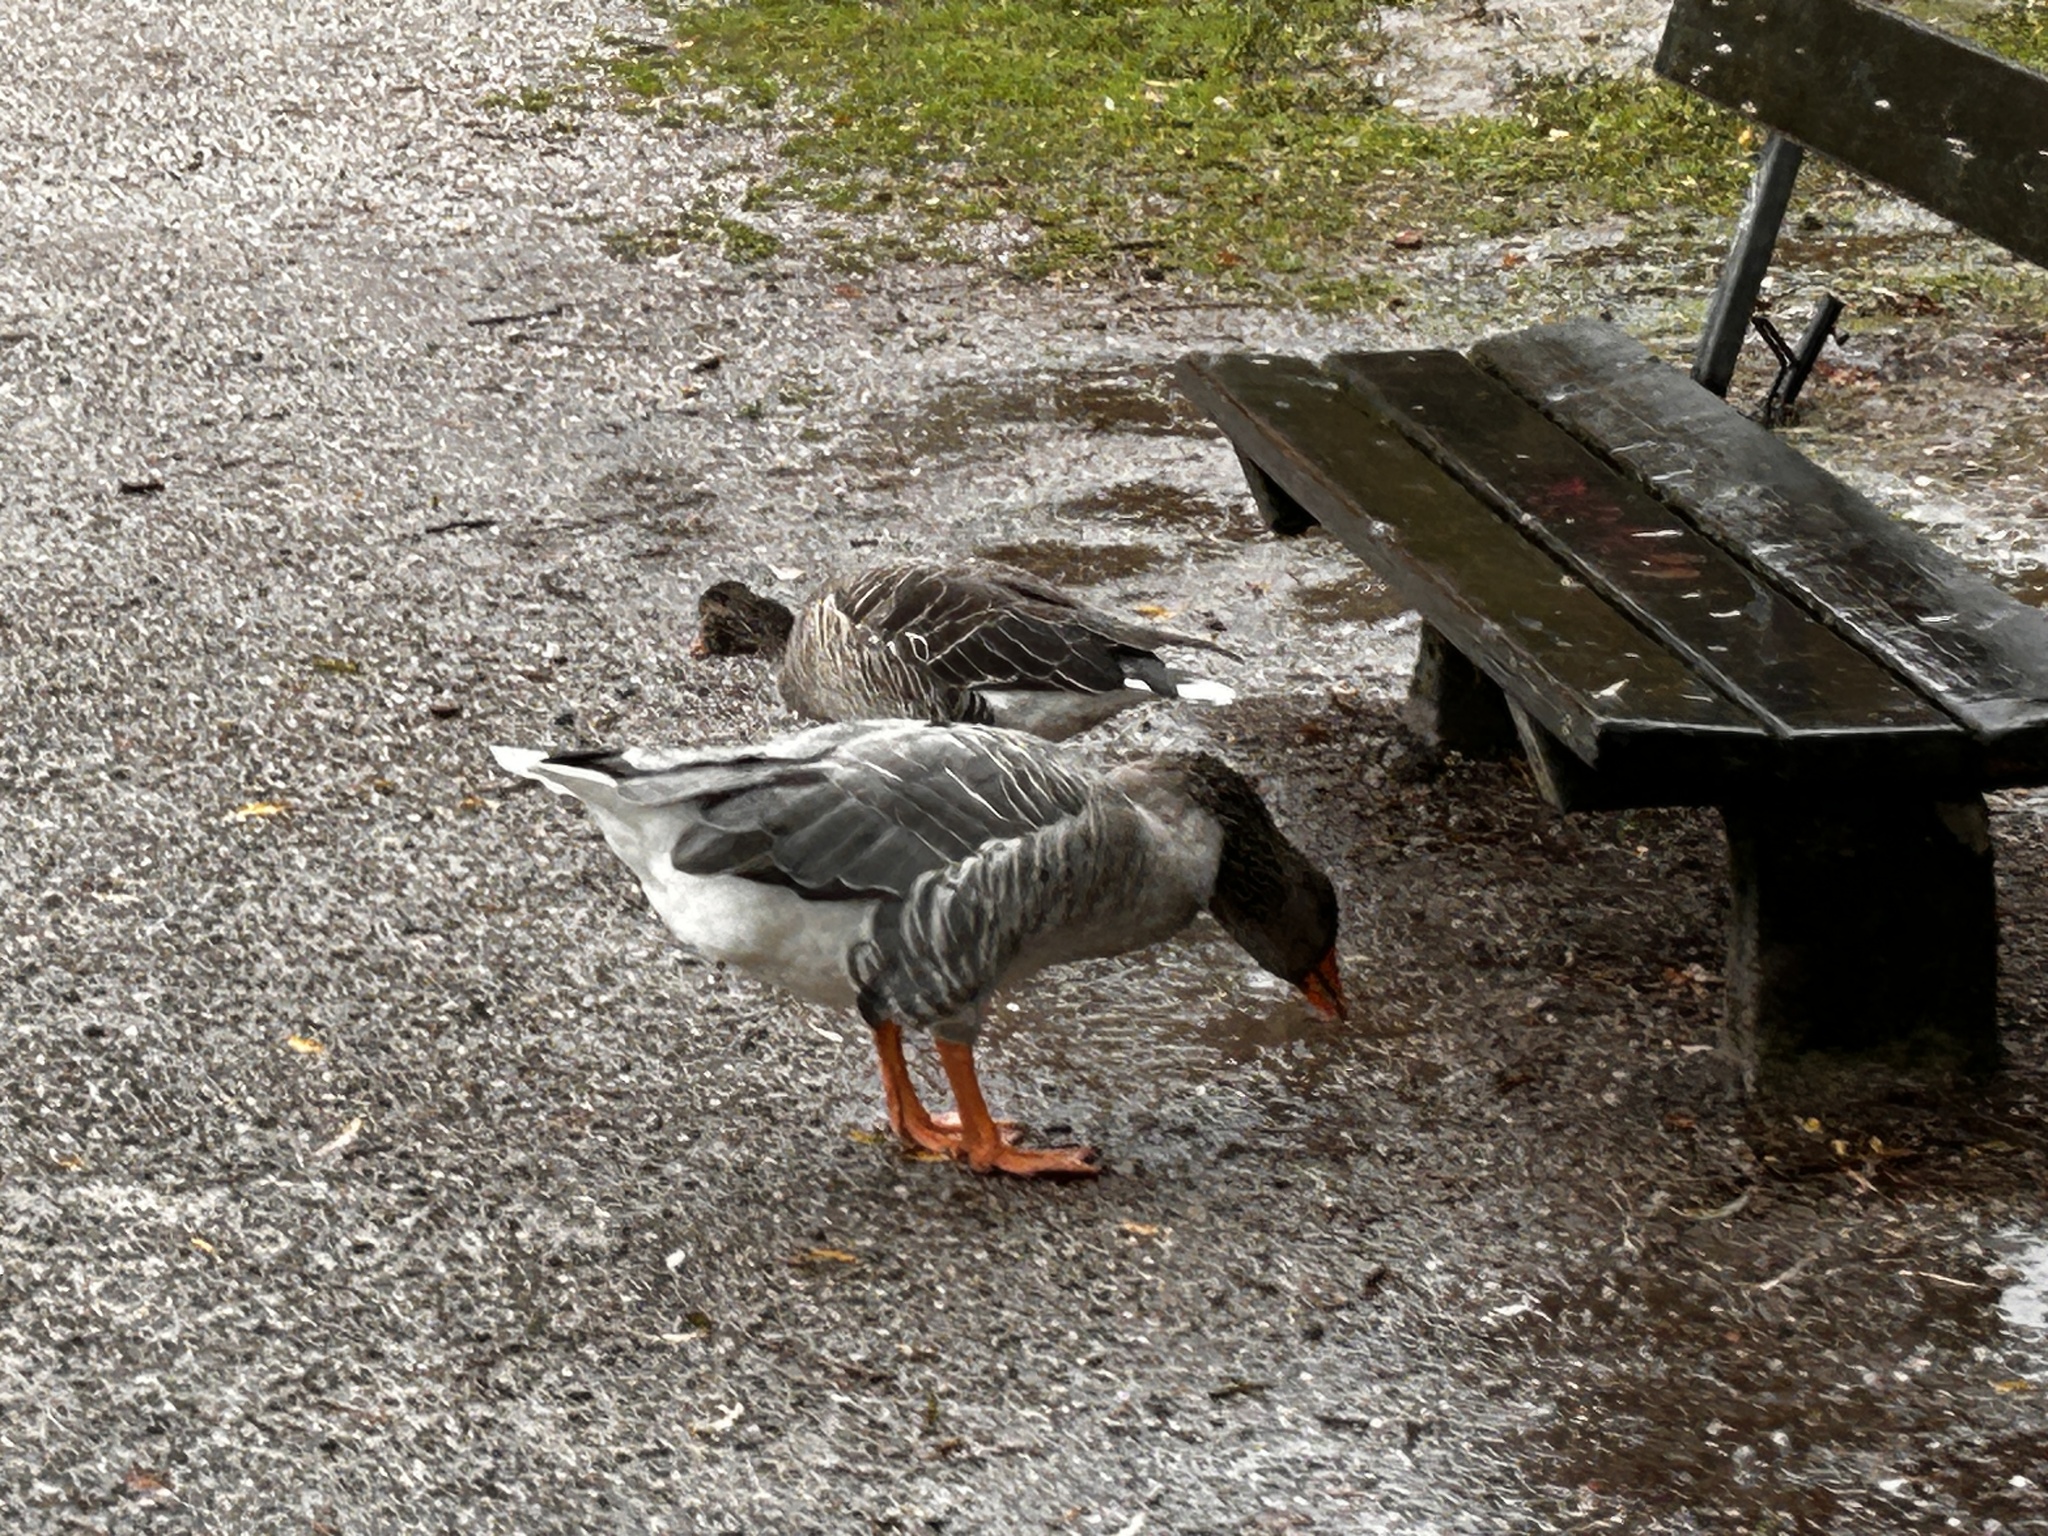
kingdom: Animalia
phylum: Chordata
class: Aves
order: Anseriformes
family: Anatidae
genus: Anser
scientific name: Anser anser
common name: Greylag goose
